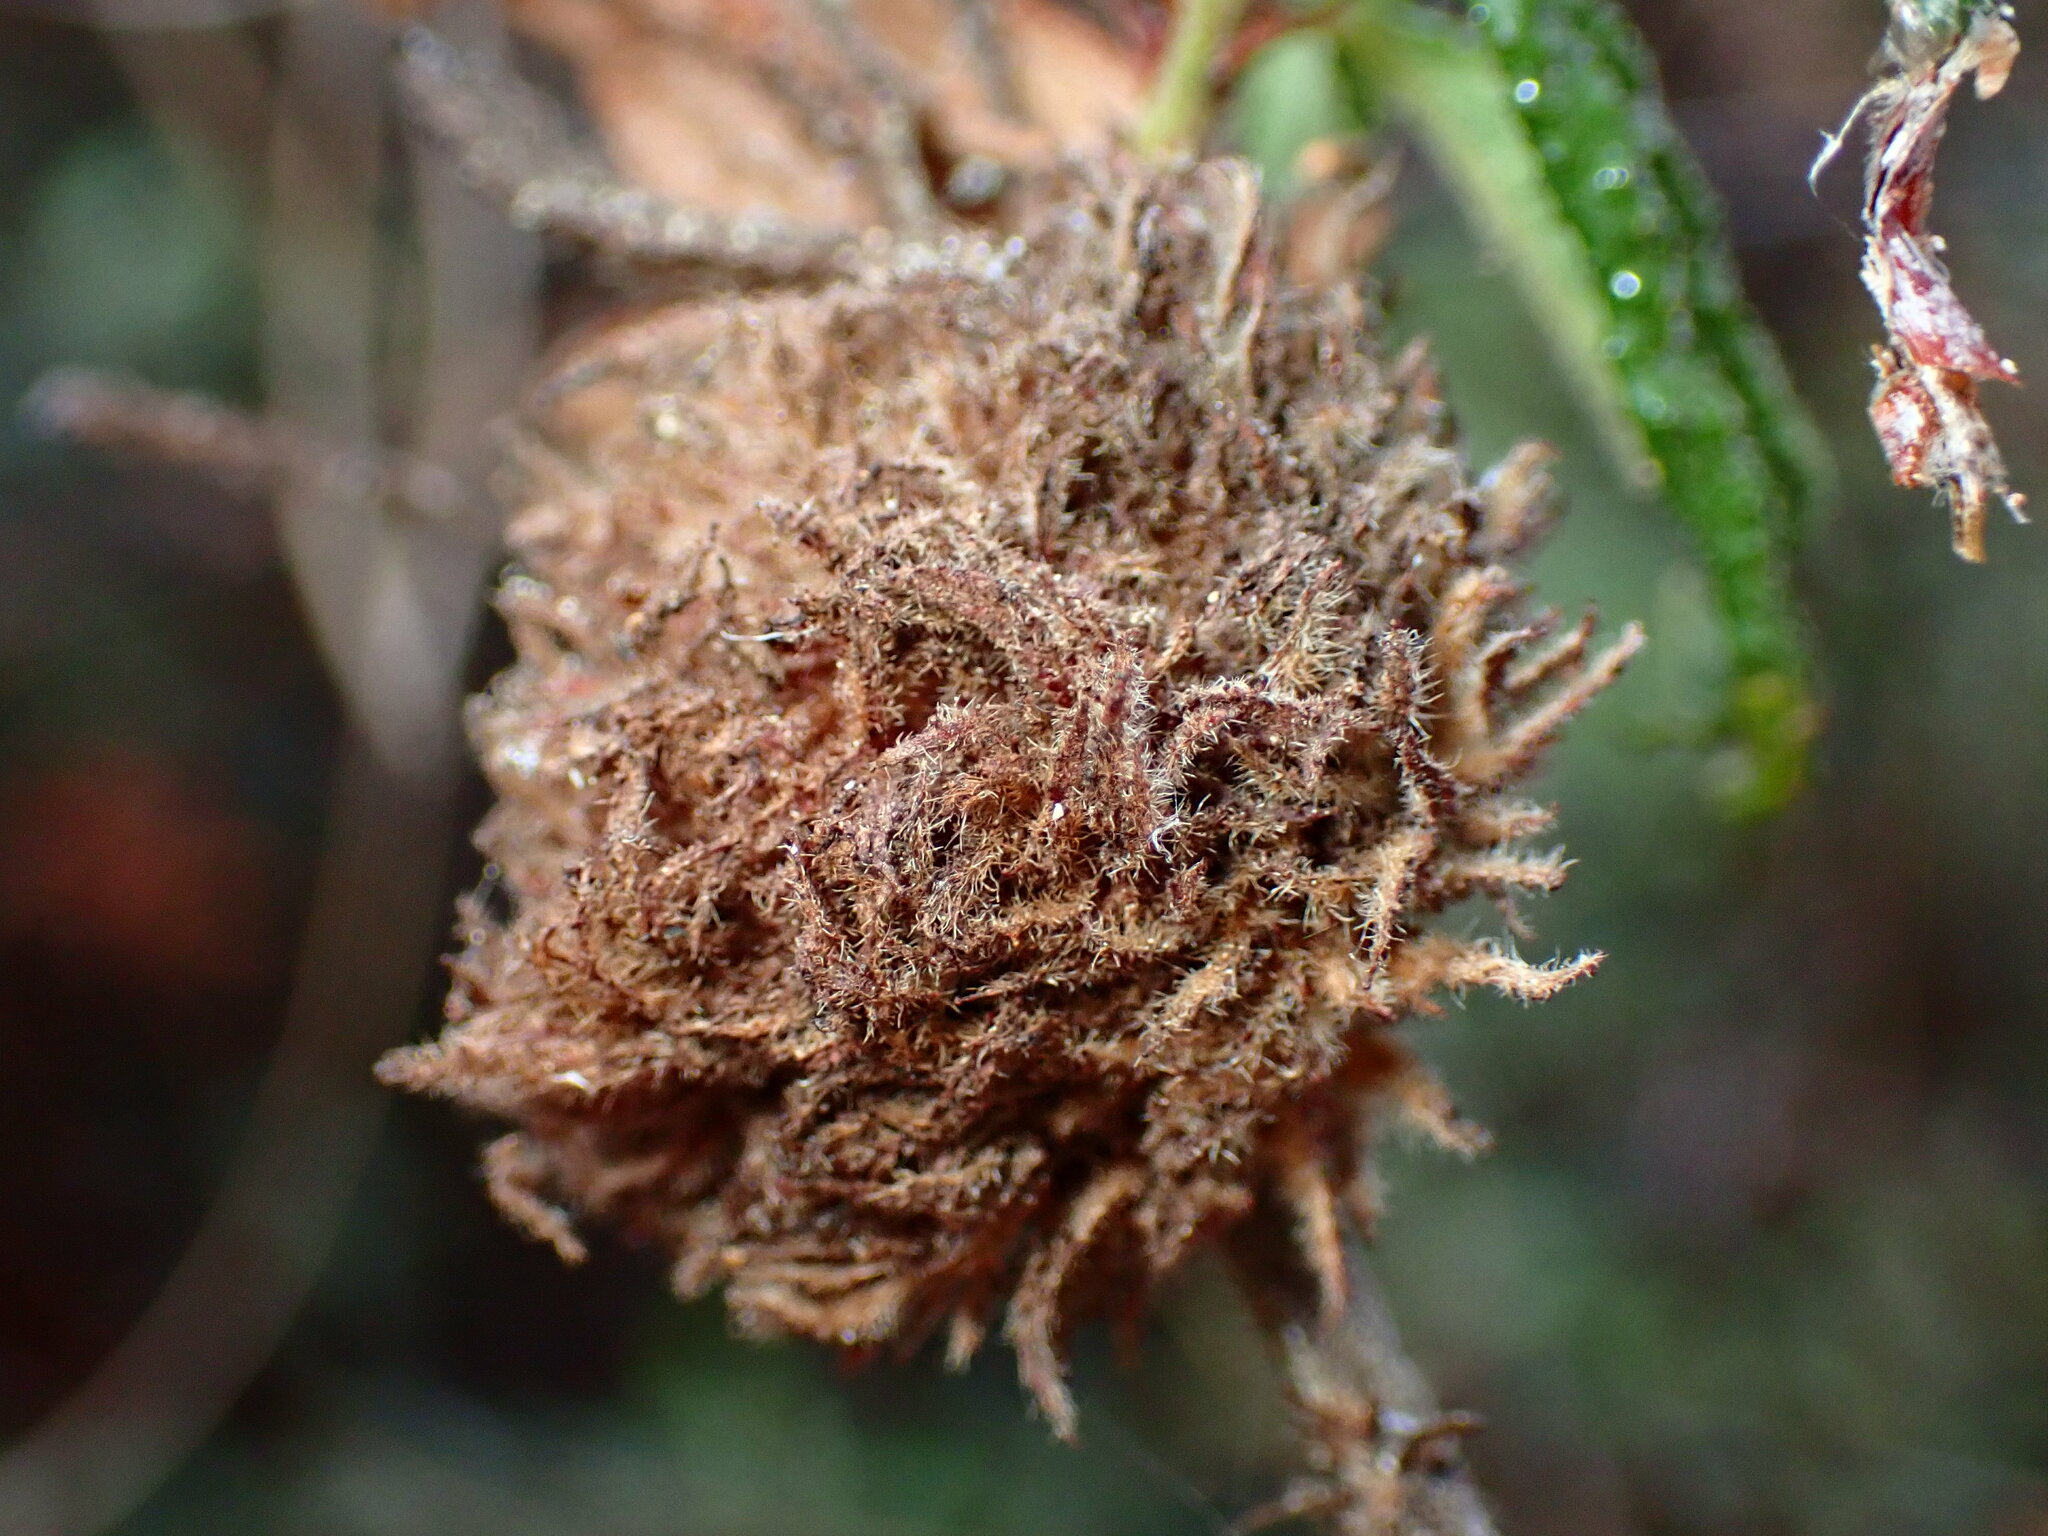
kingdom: Animalia
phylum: Arthropoda
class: Insecta
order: Diptera
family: Cecidomyiidae
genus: Asphondylia
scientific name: Asphondylia ceanothi
